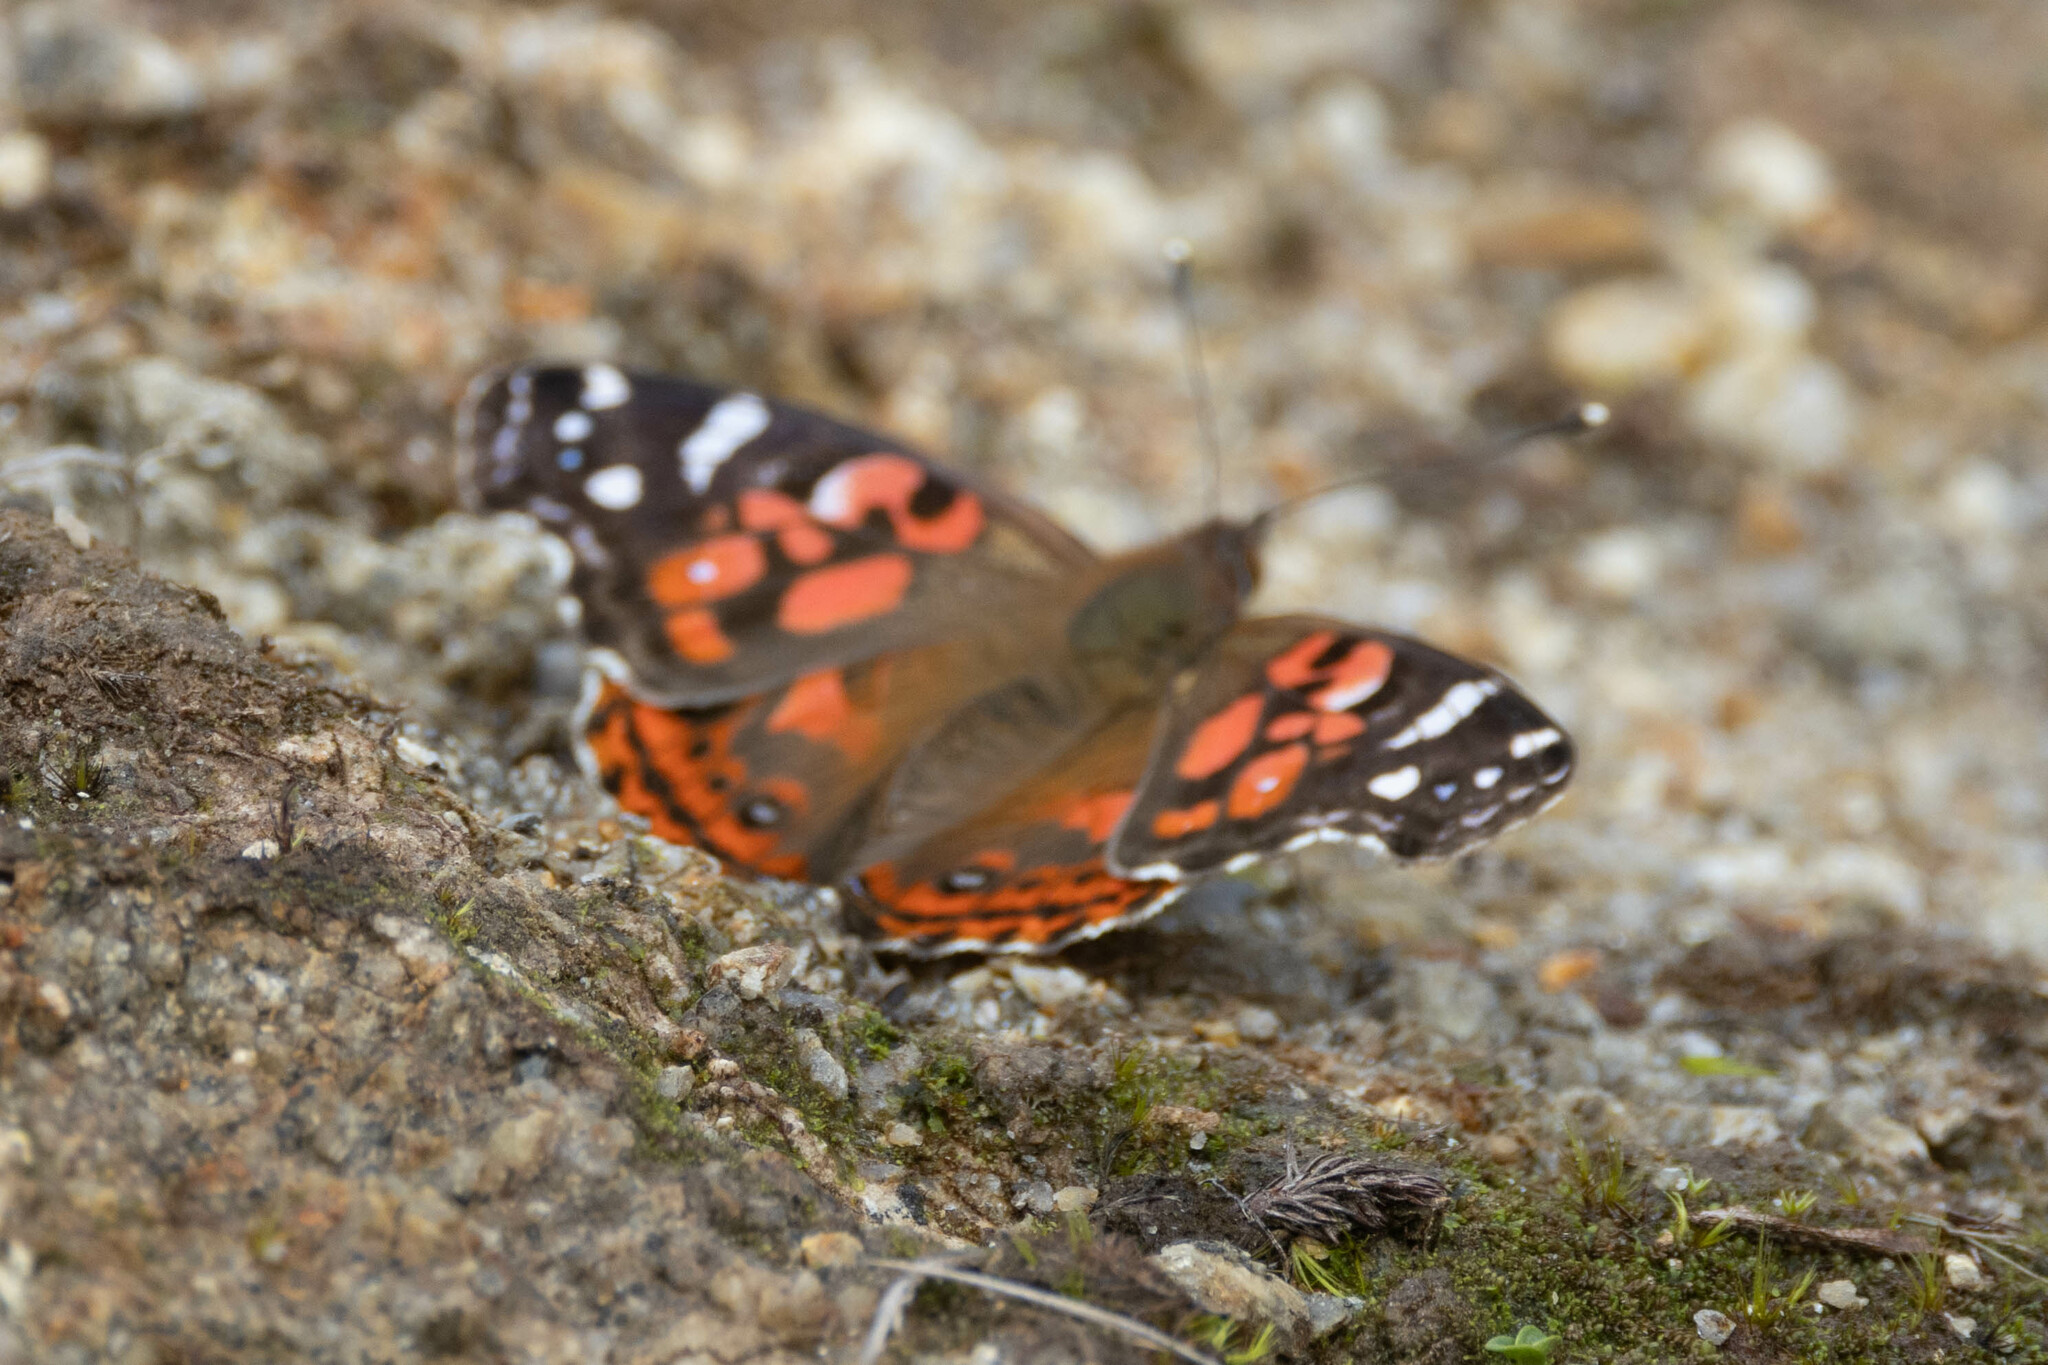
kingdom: Animalia
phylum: Arthropoda
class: Insecta
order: Lepidoptera
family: Nymphalidae
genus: Vanessa
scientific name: Vanessa braziliensis
